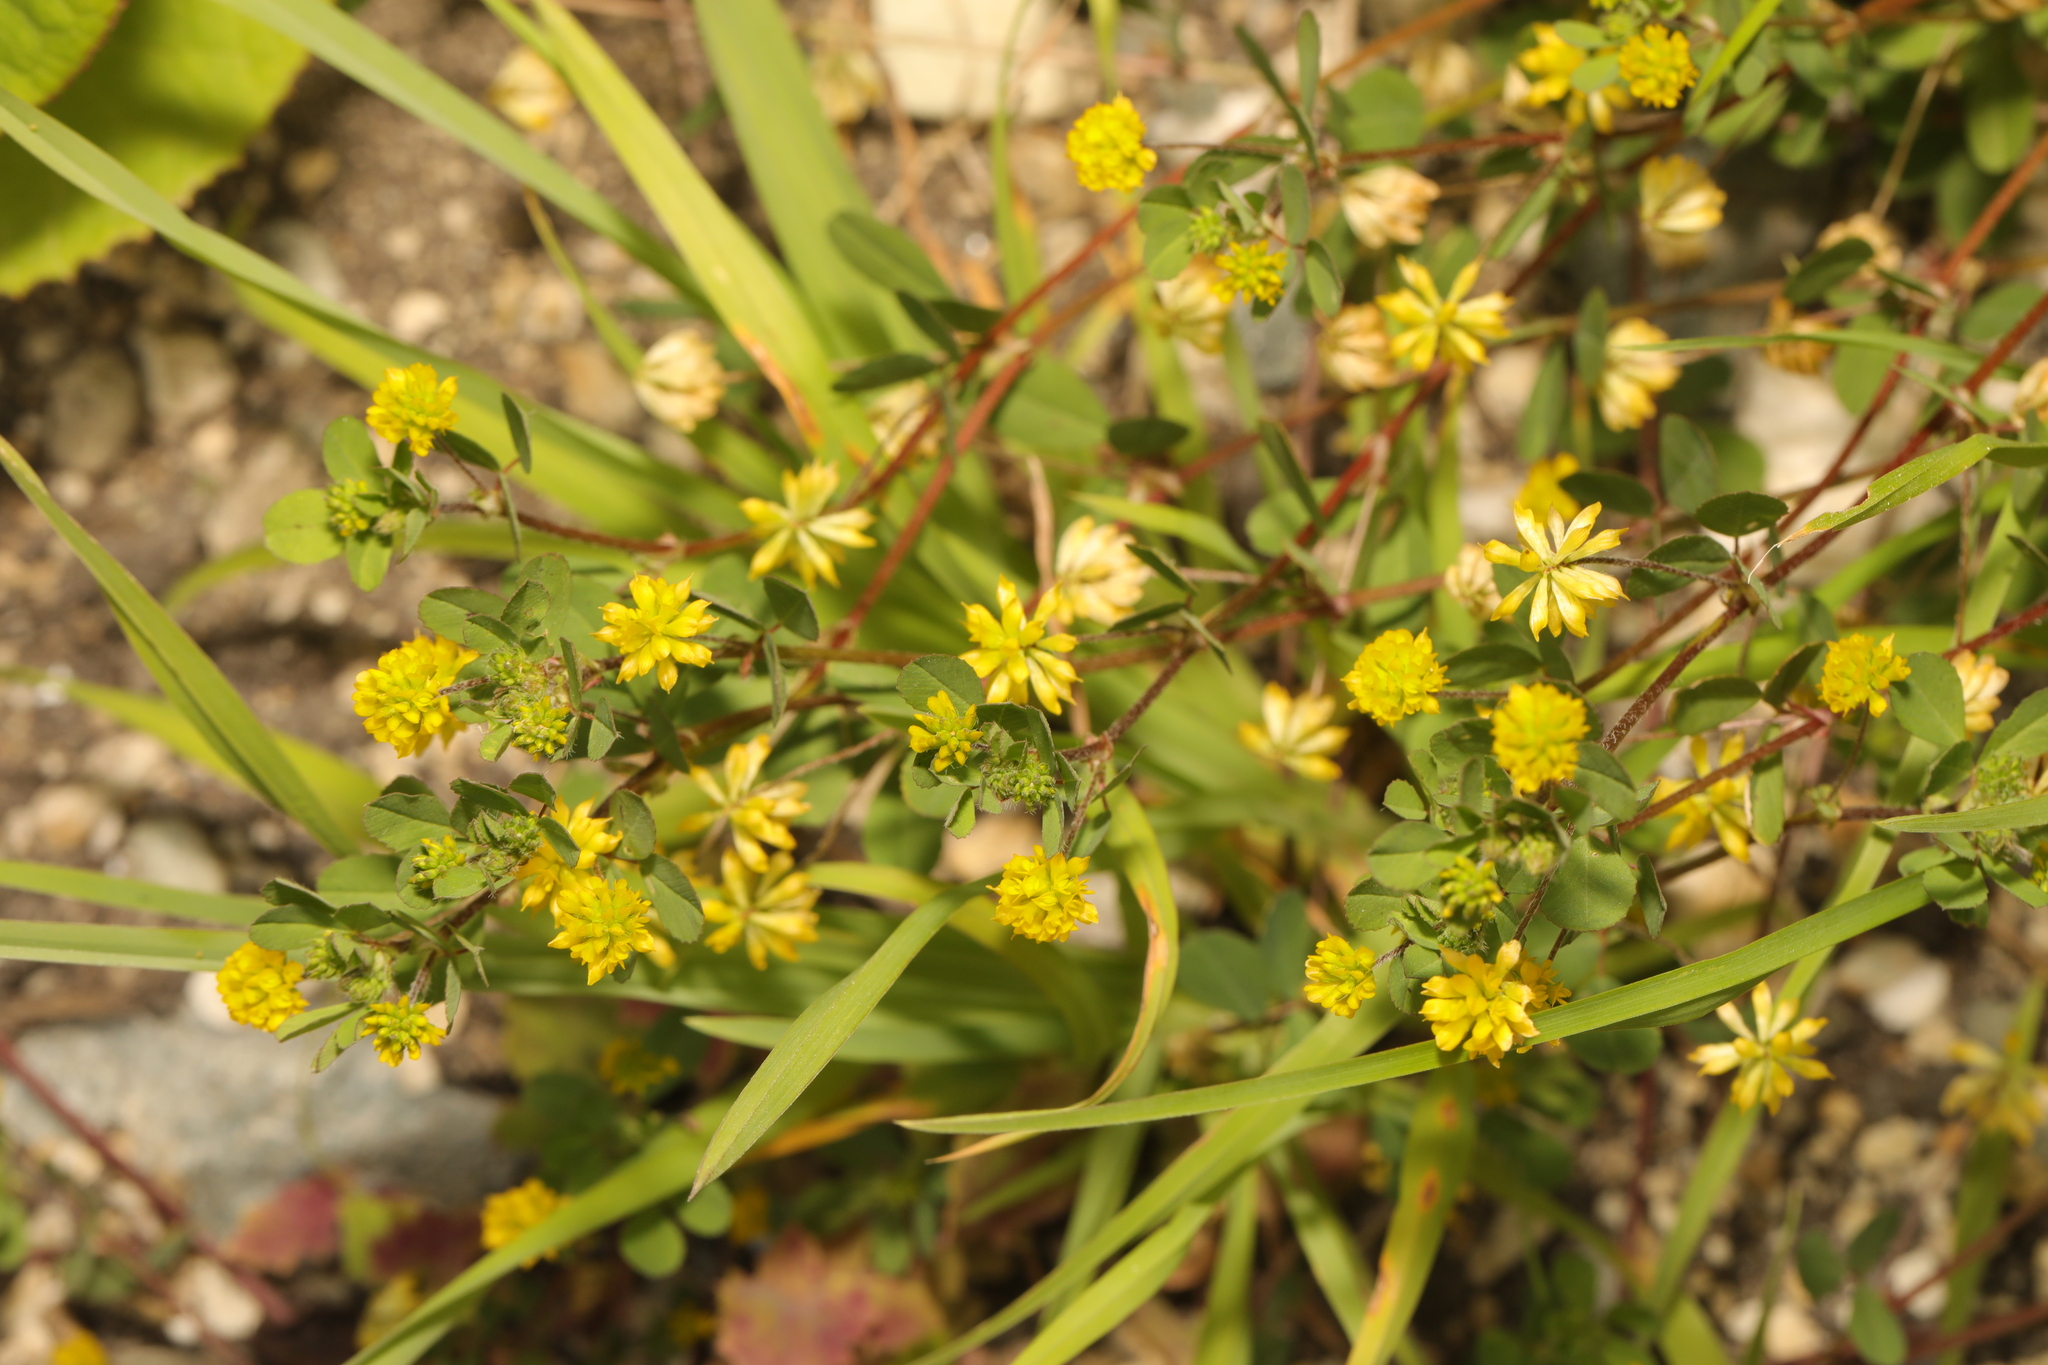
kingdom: Plantae
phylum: Tracheophyta
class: Magnoliopsida
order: Fabales
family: Fabaceae
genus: Trifolium
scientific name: Trifolium dubium
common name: Suckling clover
